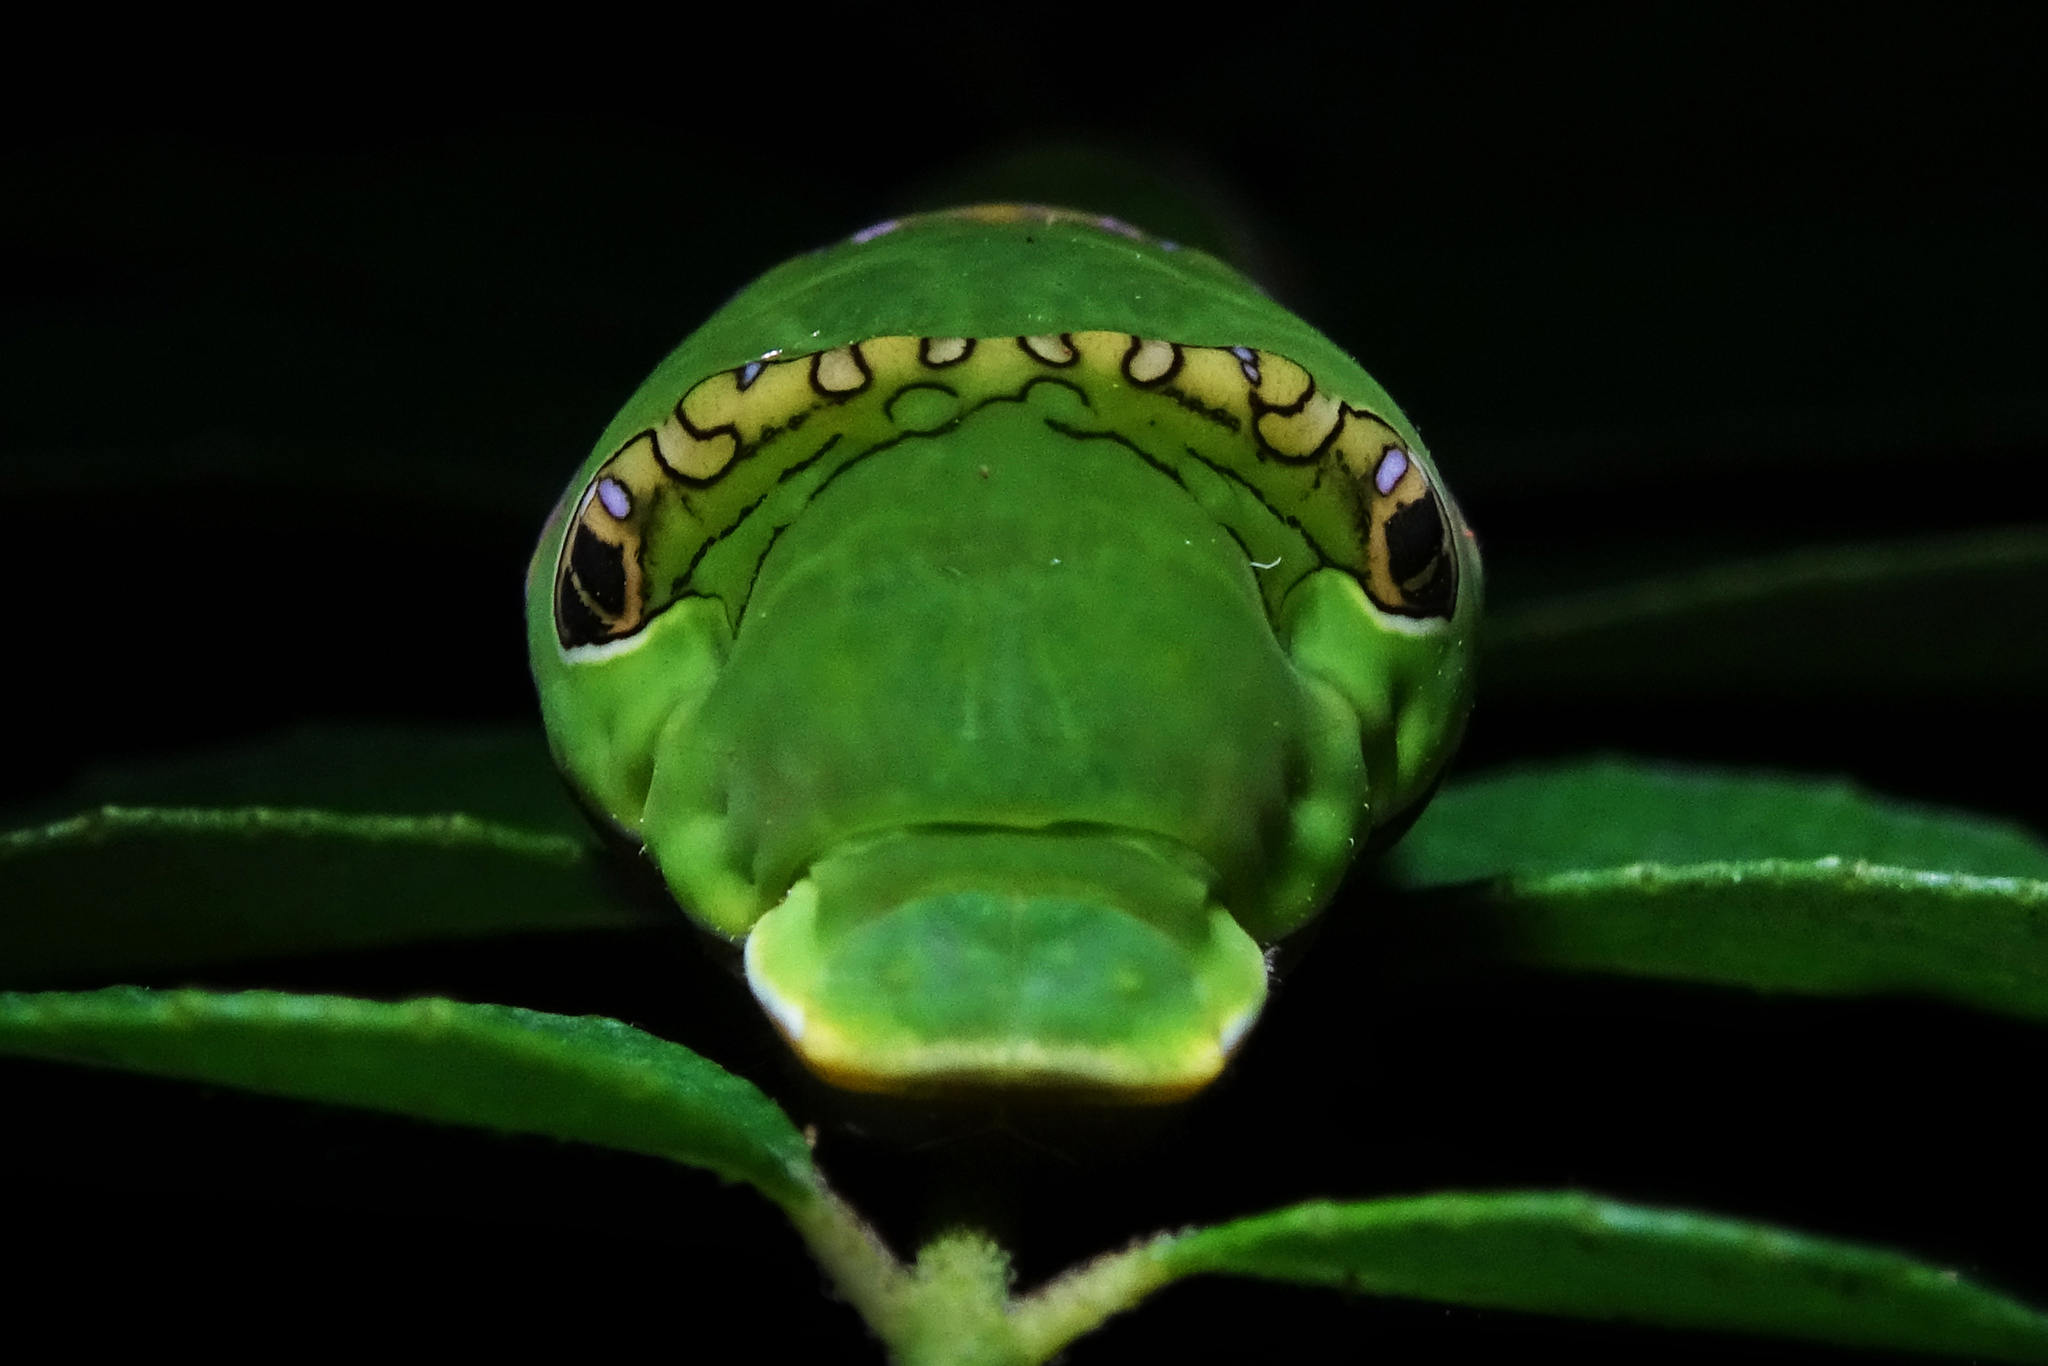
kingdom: Animalia
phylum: Arthropoda
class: Insecta
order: Lepidoptera
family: Papilionidae
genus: Papilio
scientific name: Papilio polytes
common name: Common mormon
